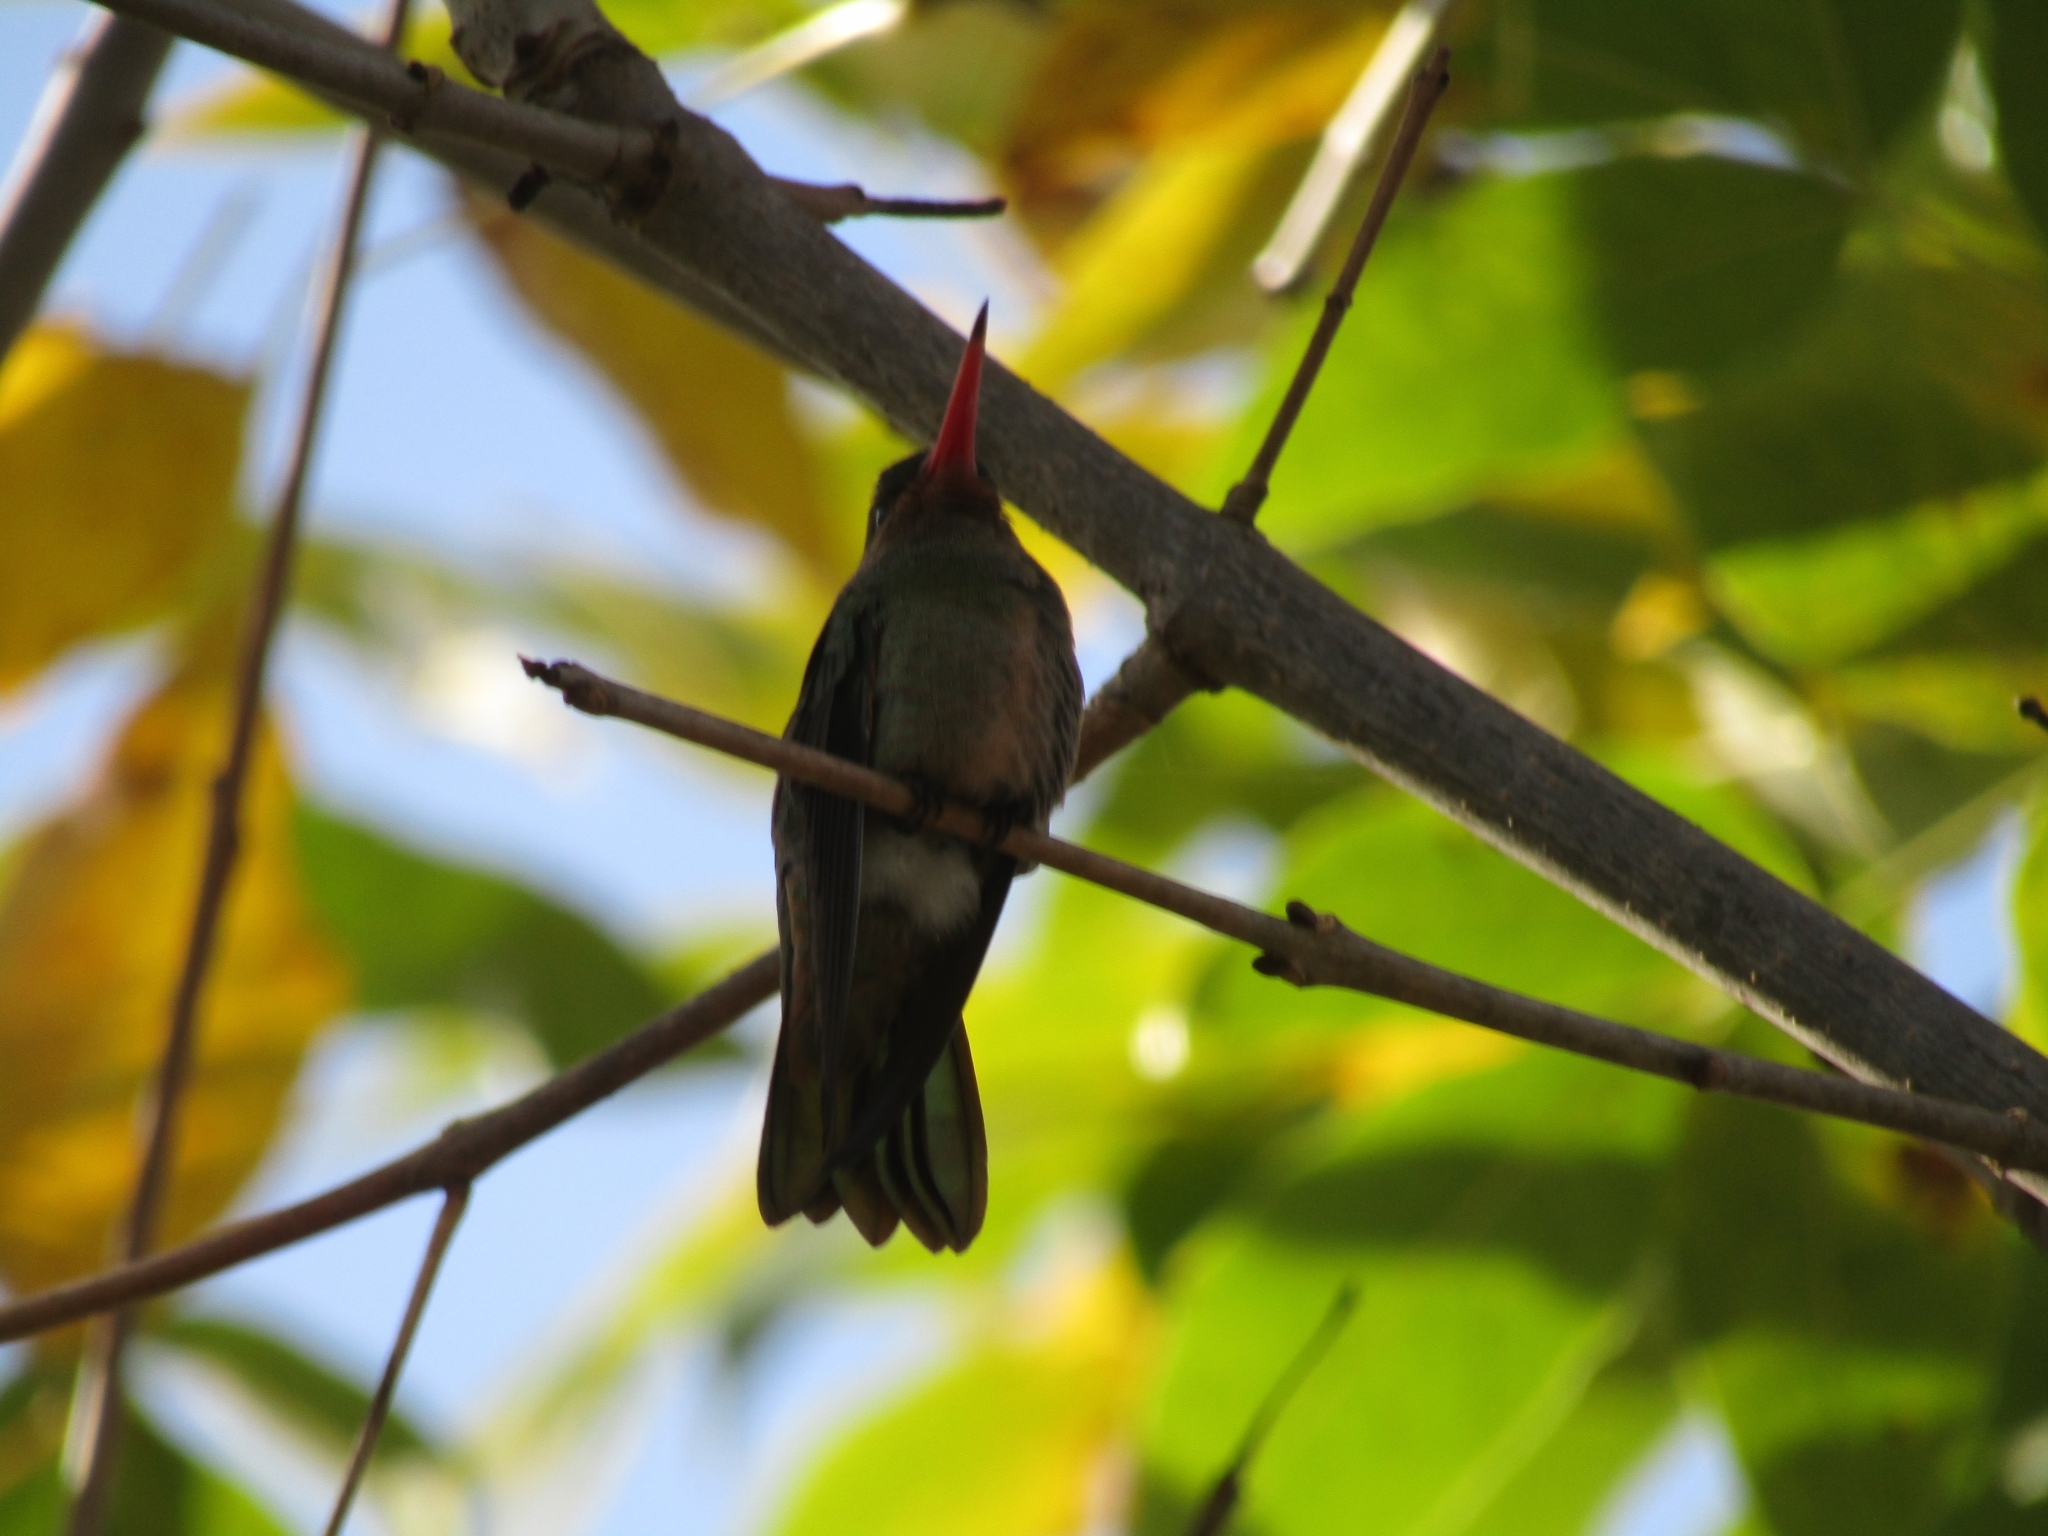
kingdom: Animalia
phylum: Chordata
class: Aves
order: Apodiformes
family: Trochilidae
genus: Hylocharis
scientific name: Hylocharis chrysura
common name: Gilded sapphire
